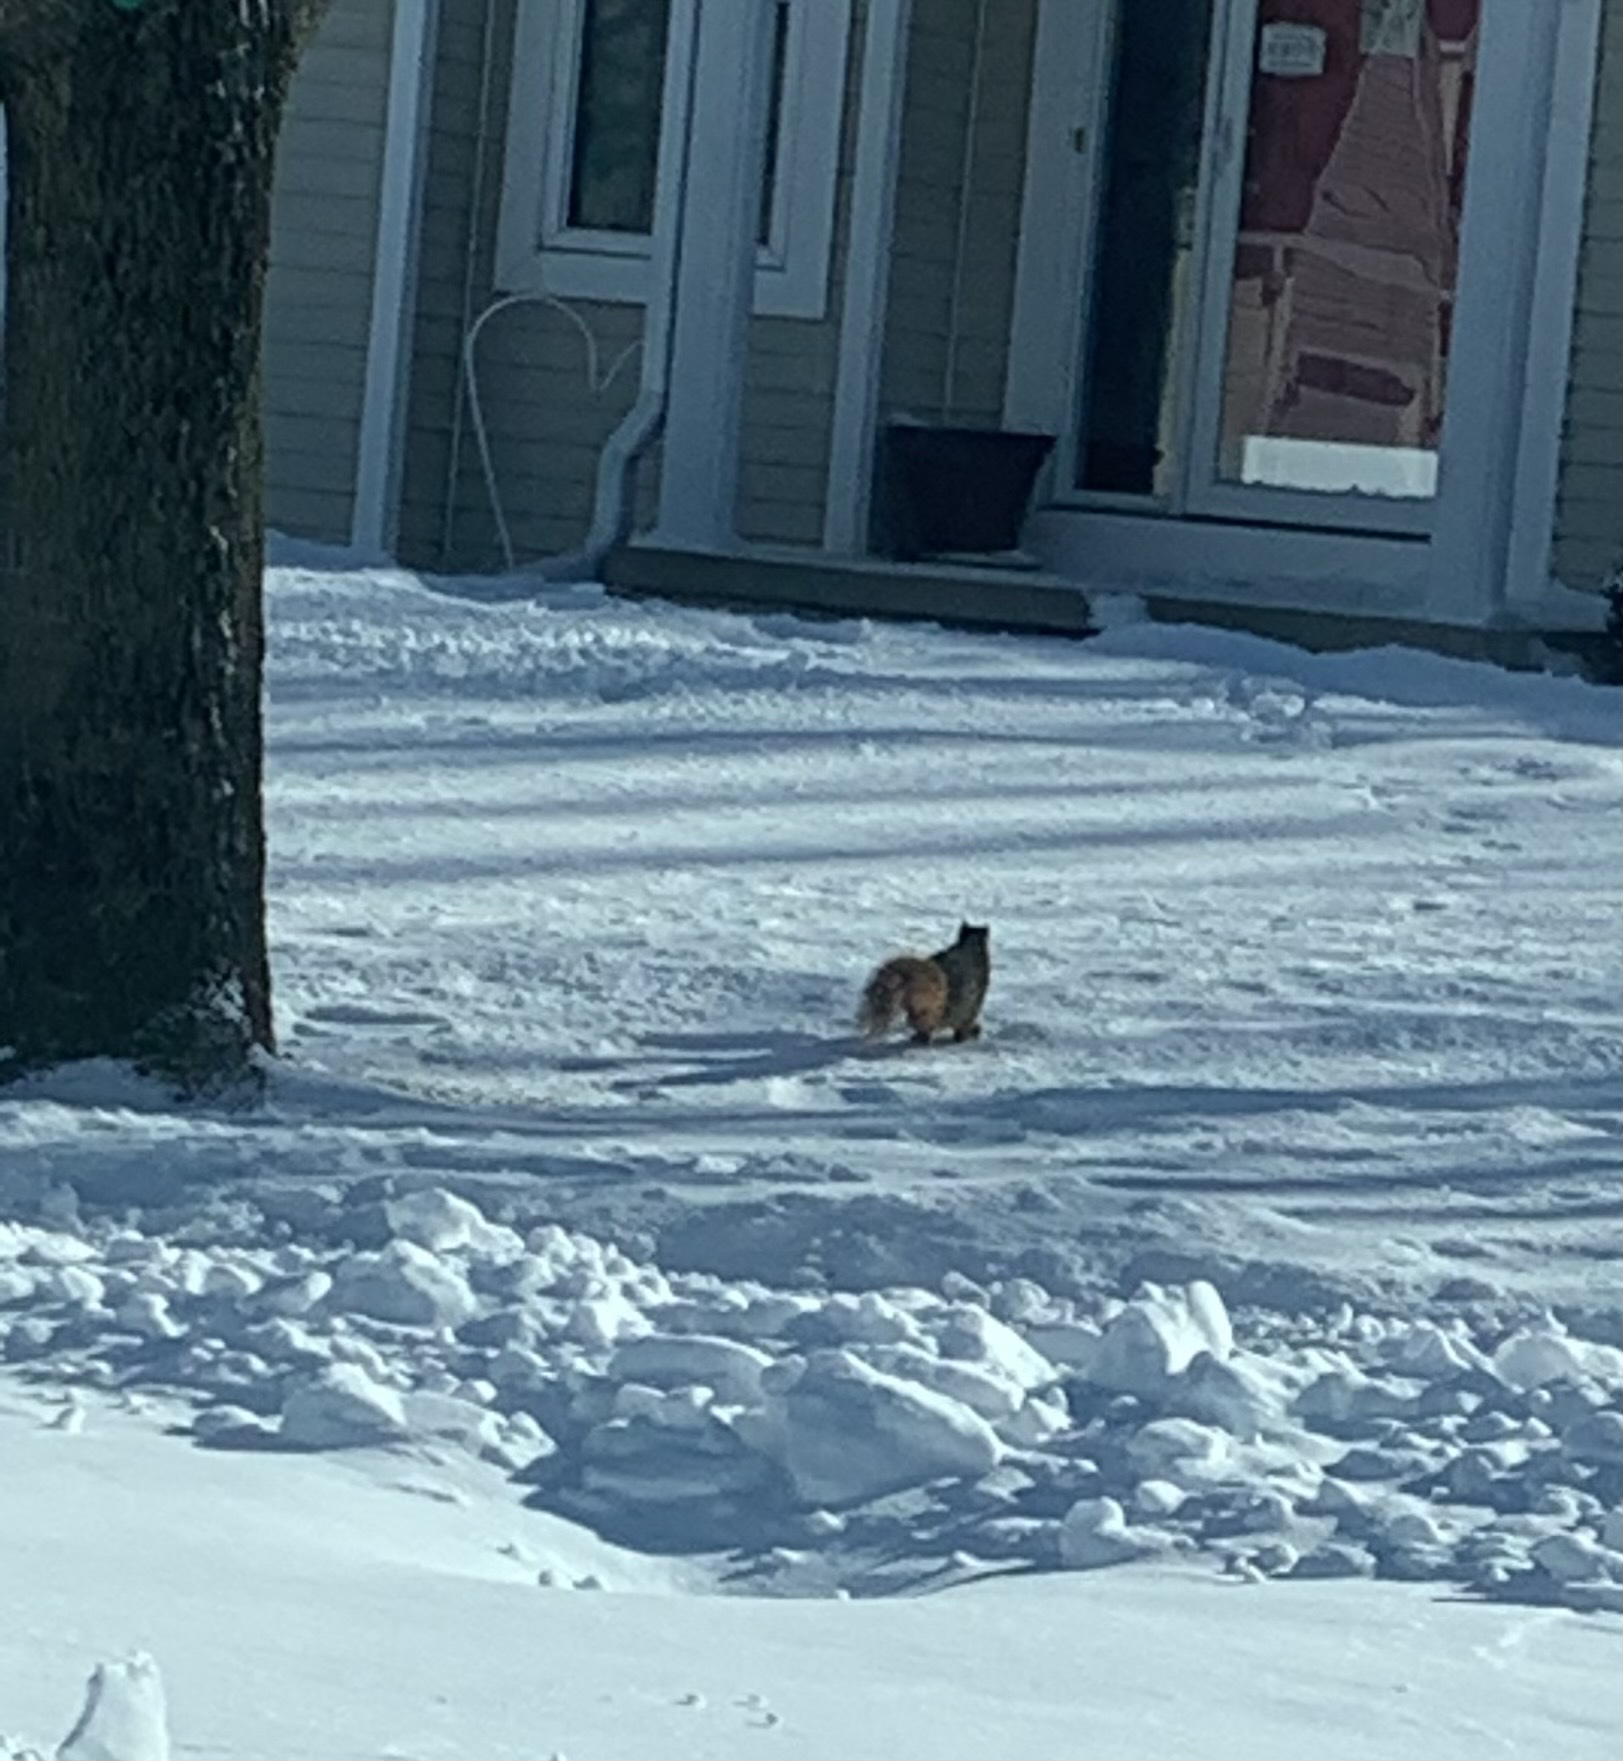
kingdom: Animalia
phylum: Chordata
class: Mammalia
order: Rodentia
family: Sciuridae
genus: Sciurus
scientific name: Sciurus niger
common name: Fox squirrel
